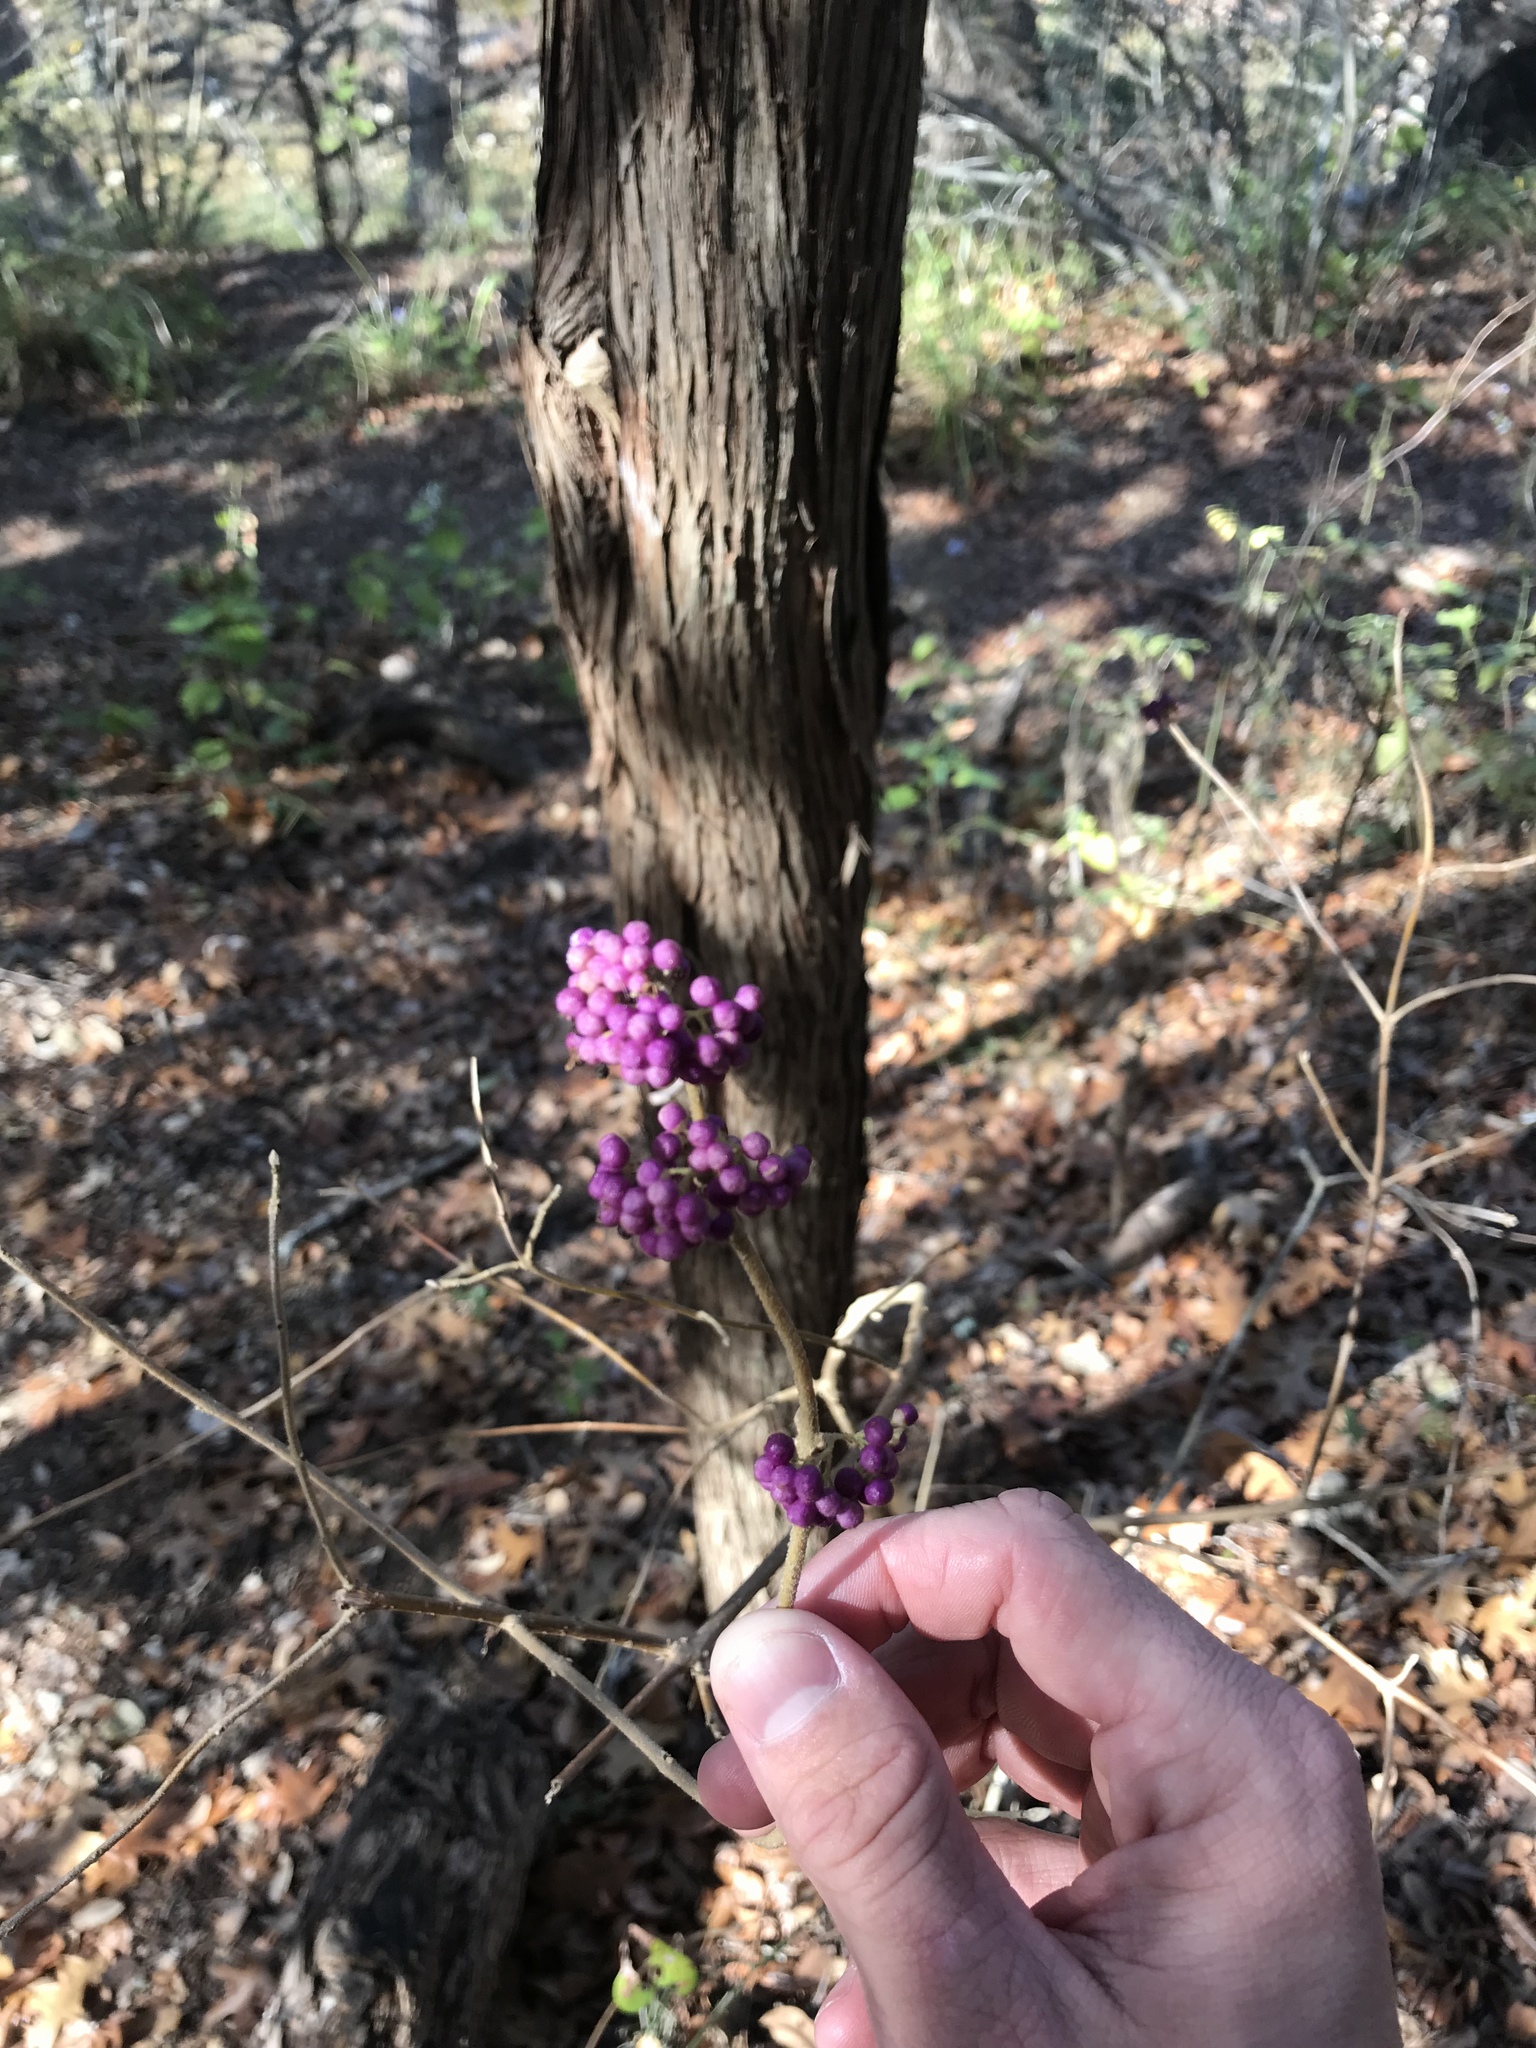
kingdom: Plantae
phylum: Tracheophyta
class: Magnoliopsida
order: Lamiales
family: Lamiaceae
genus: Callicarpa
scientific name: Callicarpa americana
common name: American beautyberry
